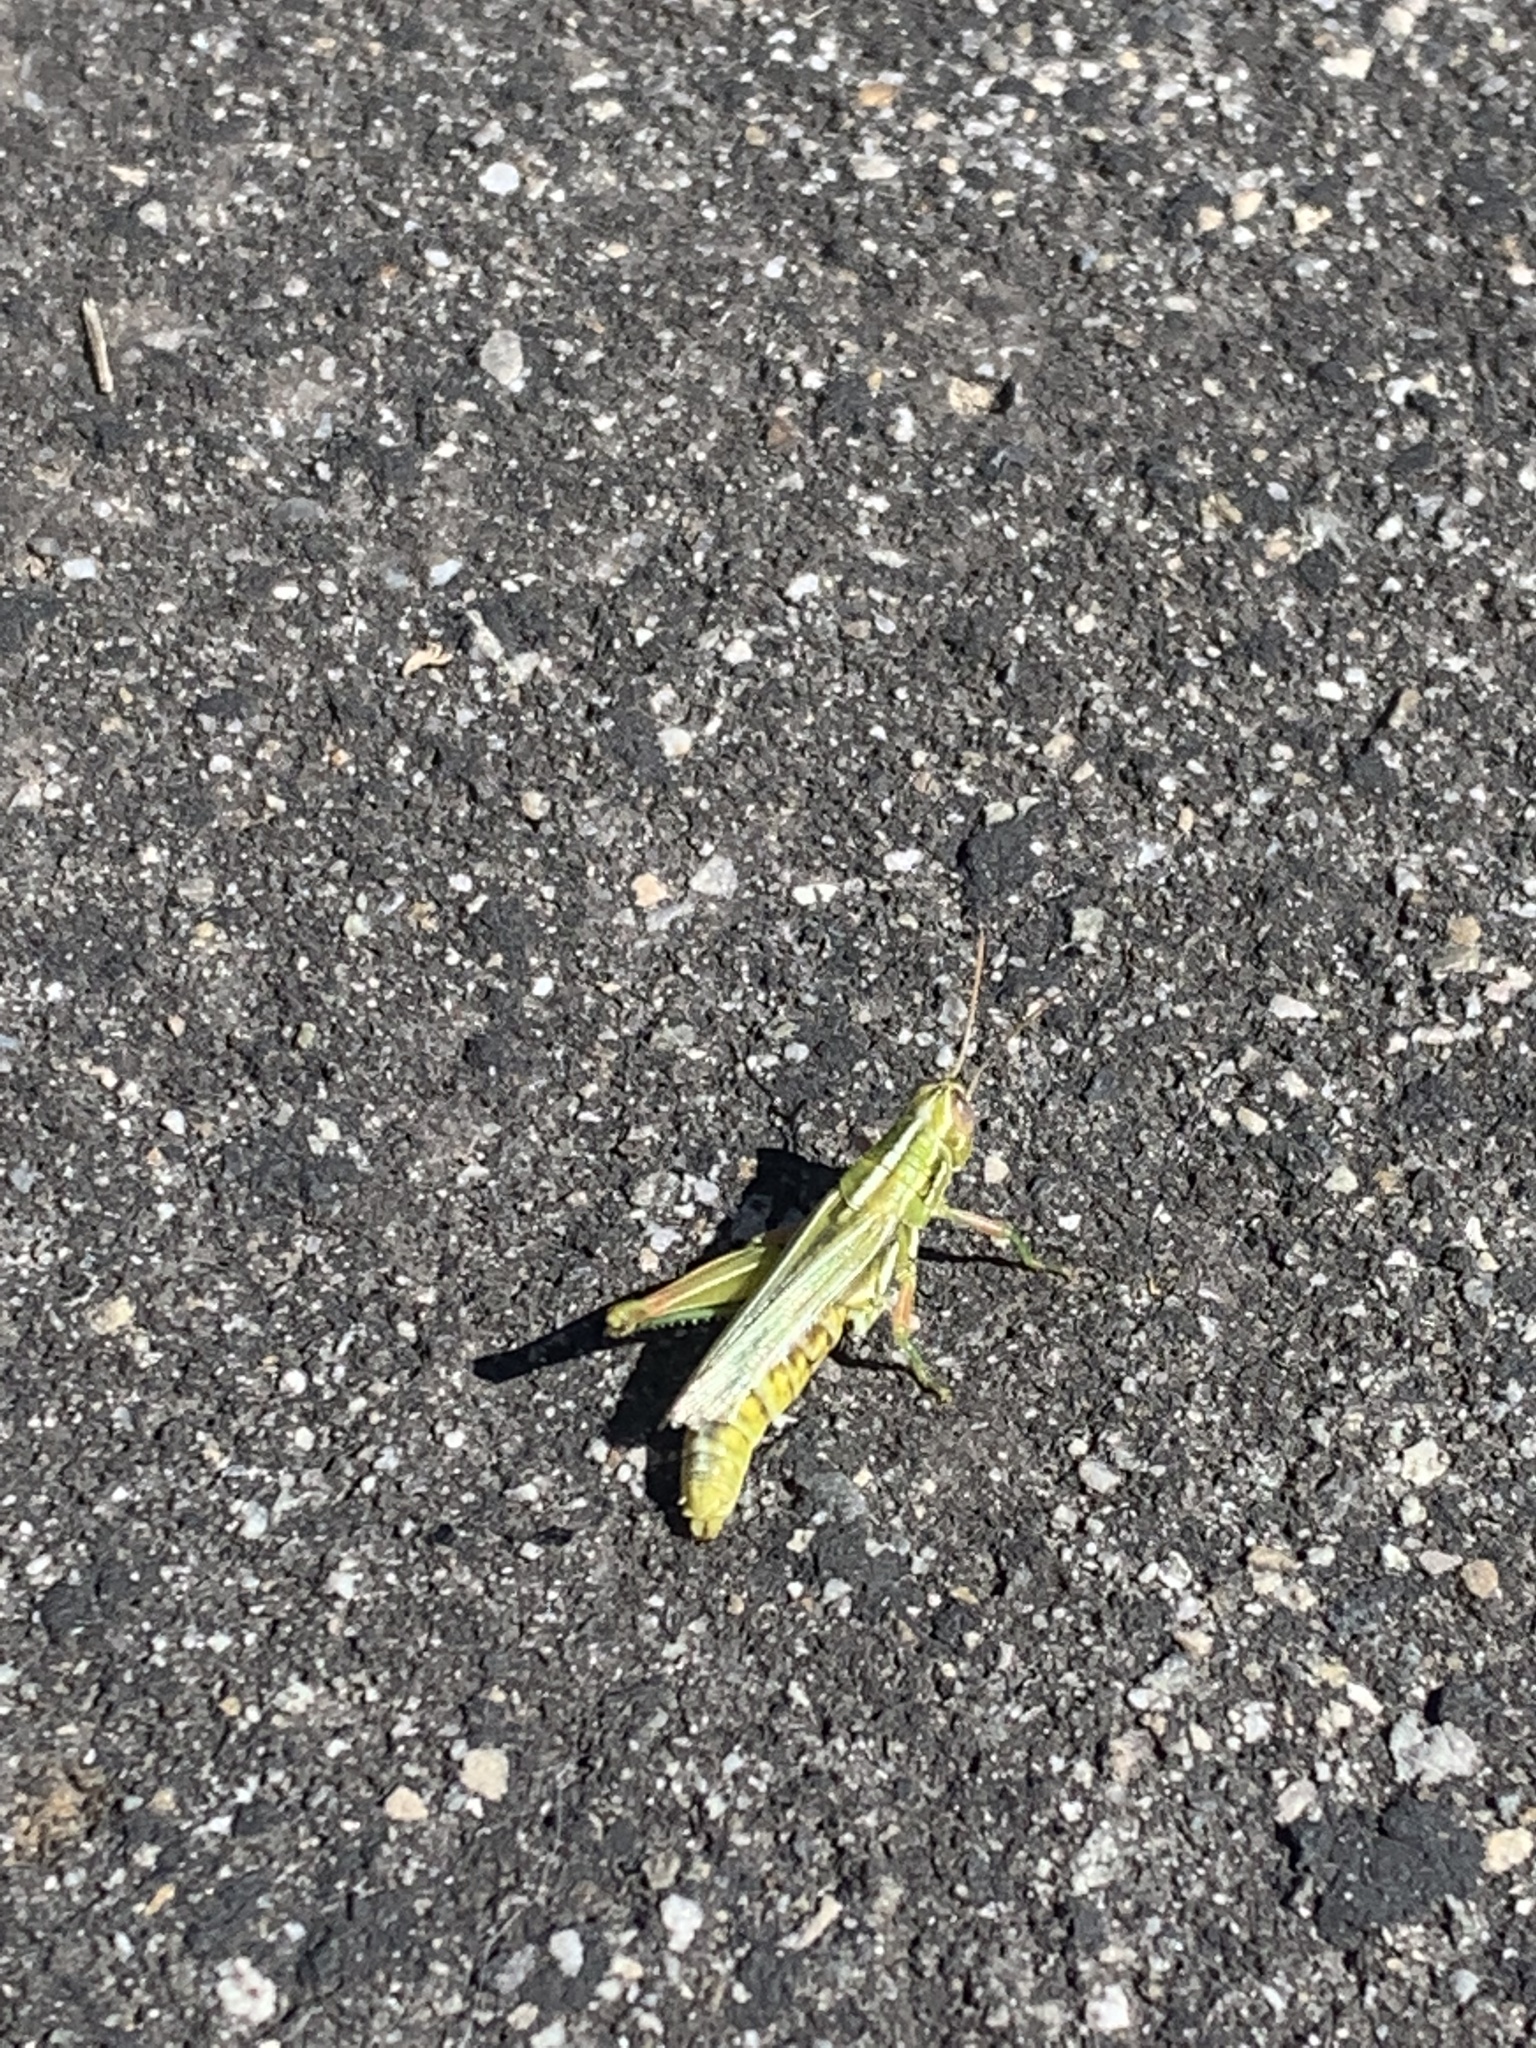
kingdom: Animalia
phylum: Arthropoda
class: Insecta
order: Orthoptera
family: Acrididae
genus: Hesperotettix
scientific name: Hesperotettix viridis
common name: Meadow purple-striped grasshopper
